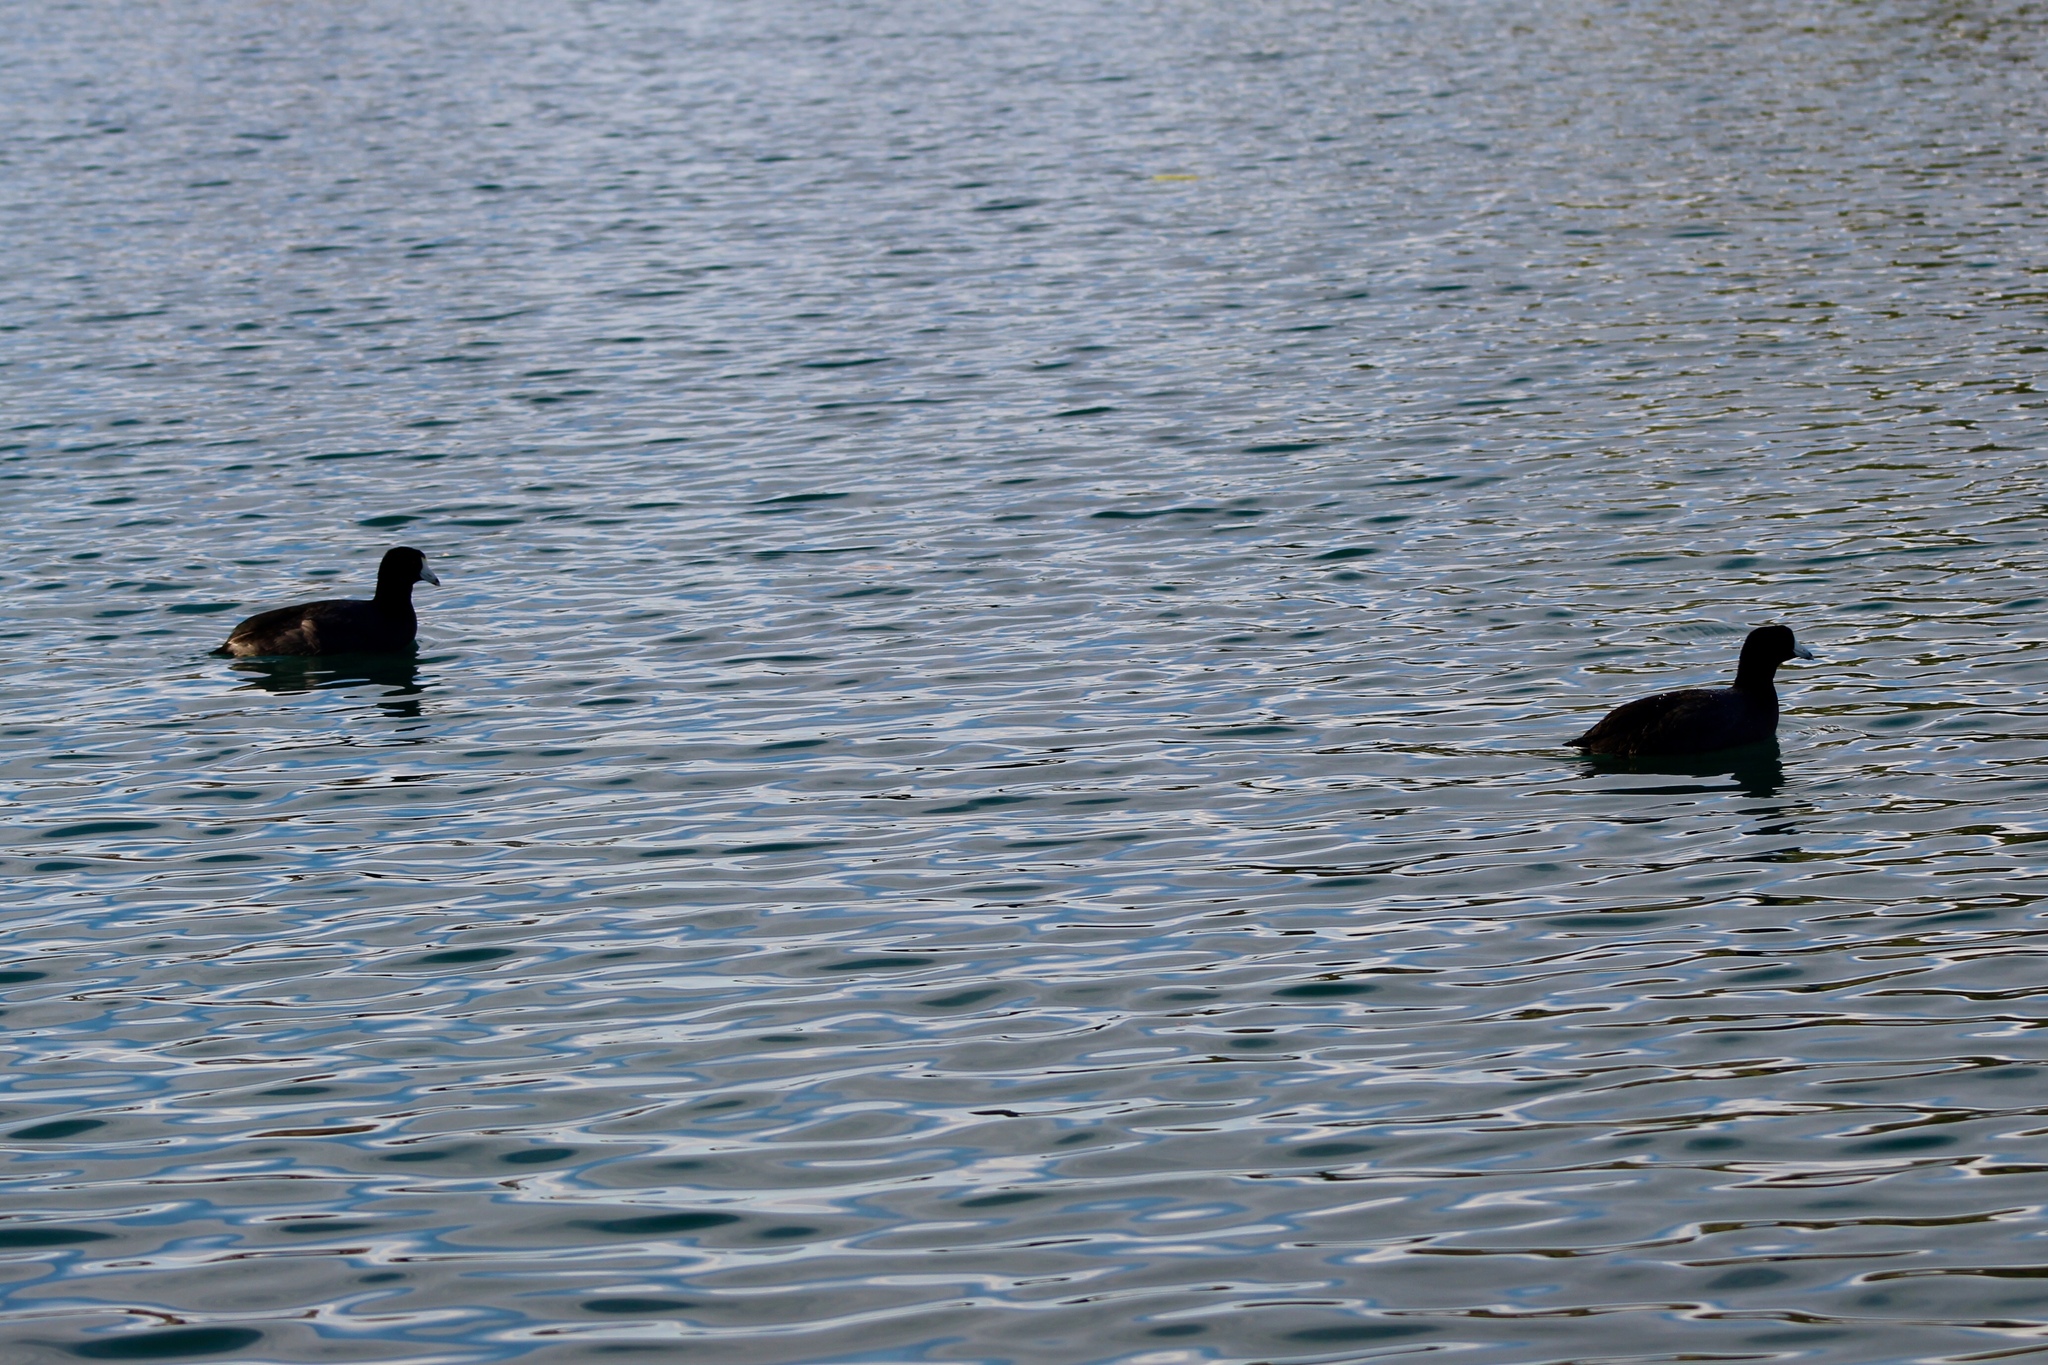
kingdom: Animalia
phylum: Chordata
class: Aves
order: Gruiformes
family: Rallidae
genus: Fulica
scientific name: Fulica americana
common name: American coot
